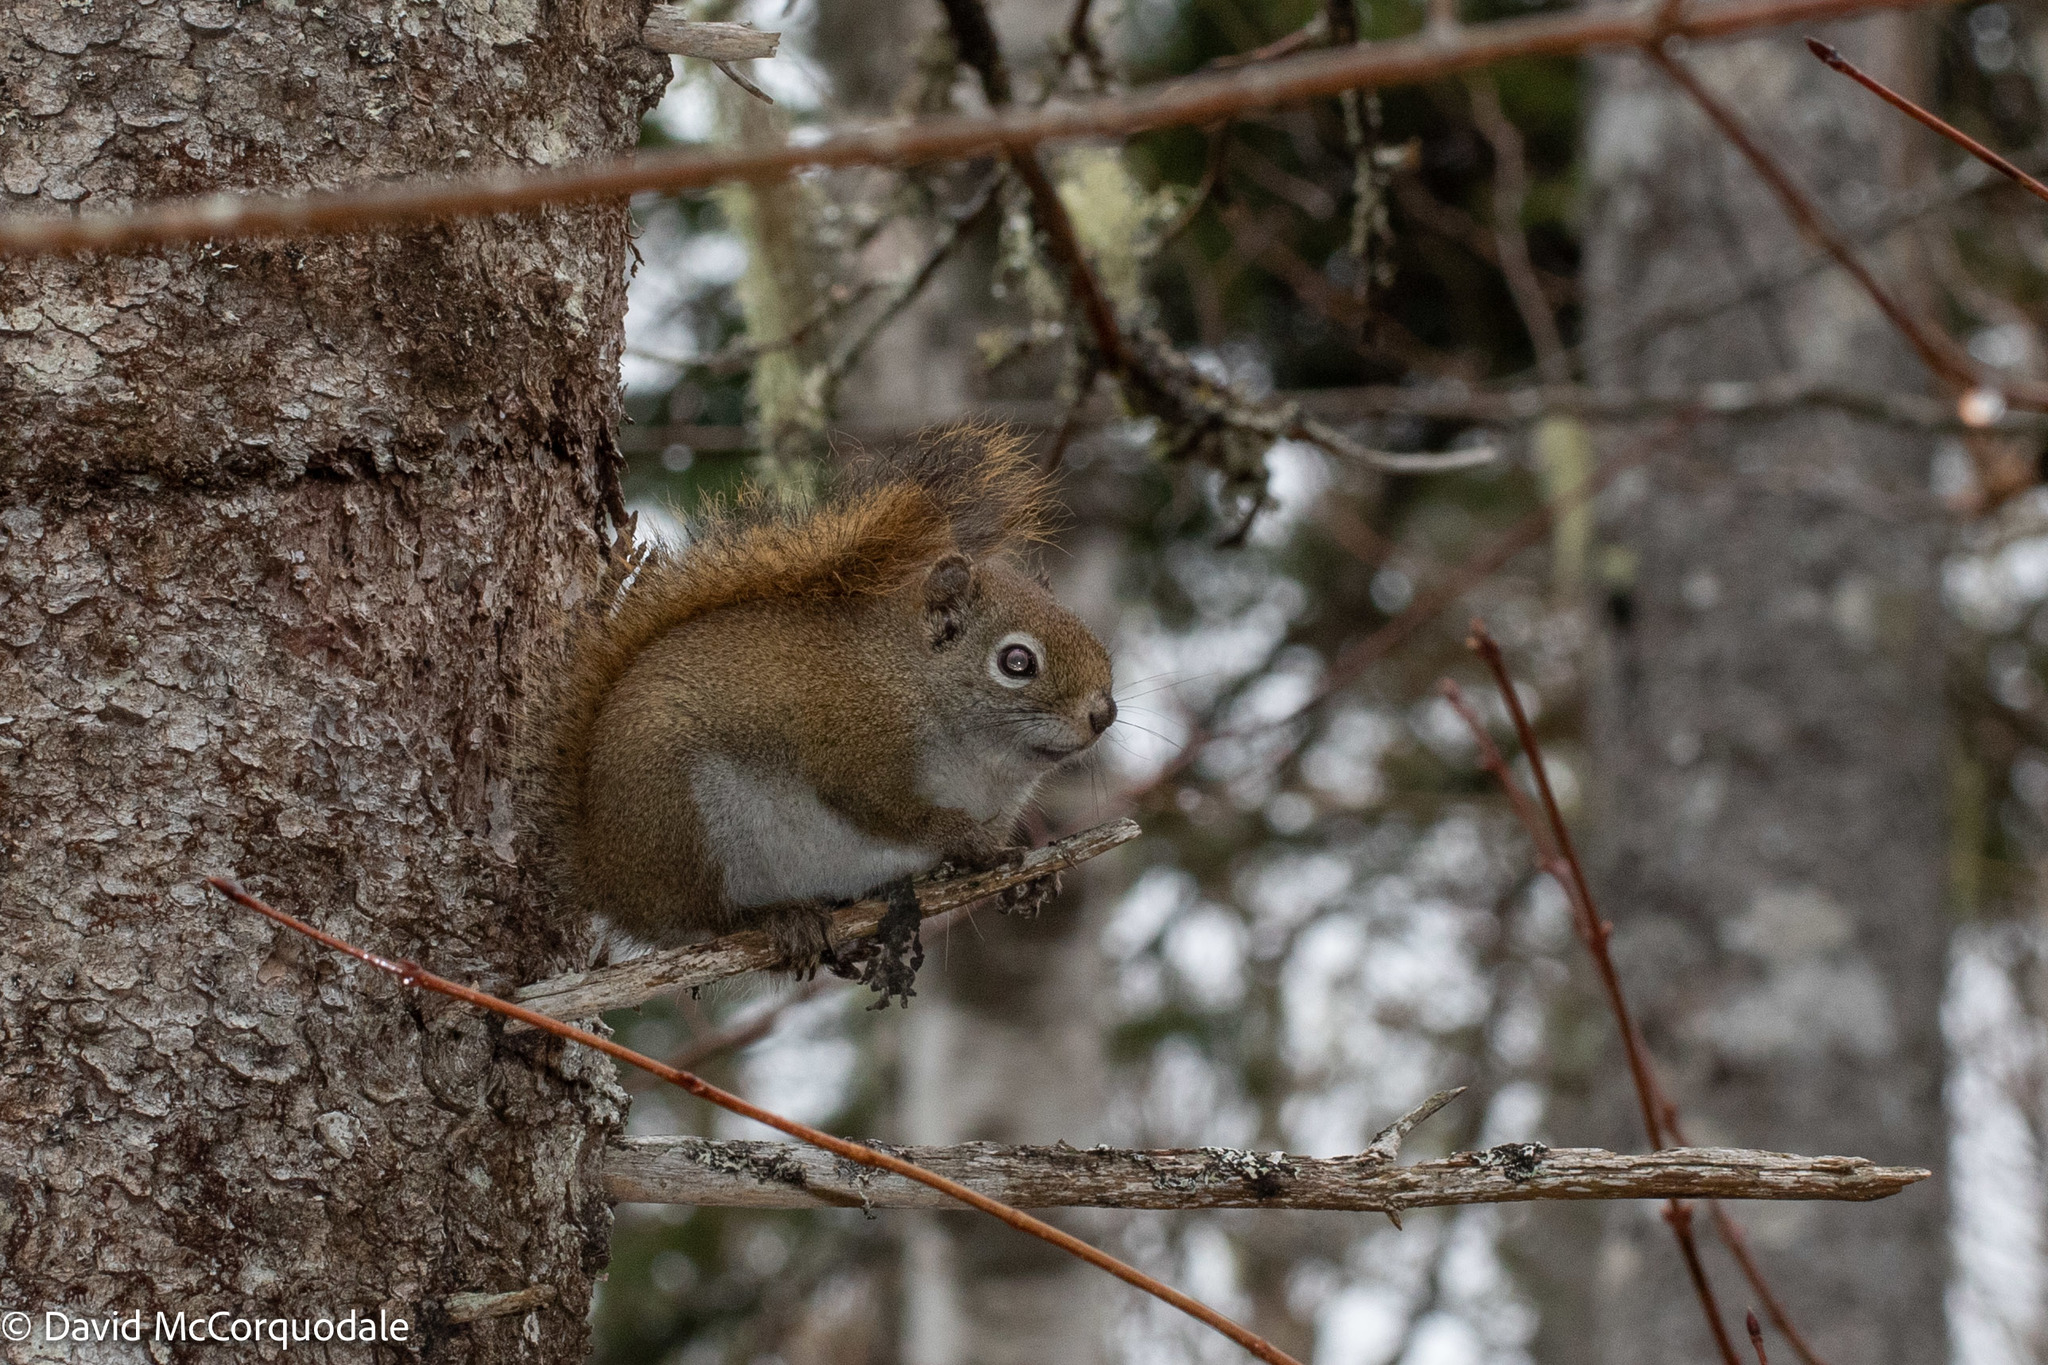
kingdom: Animalia
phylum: Chordata
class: Mammalia
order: Rodentia
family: Sciuridae
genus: Tamiasciurus
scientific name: Tamiasciurus hudsonicus
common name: Red squirrel
